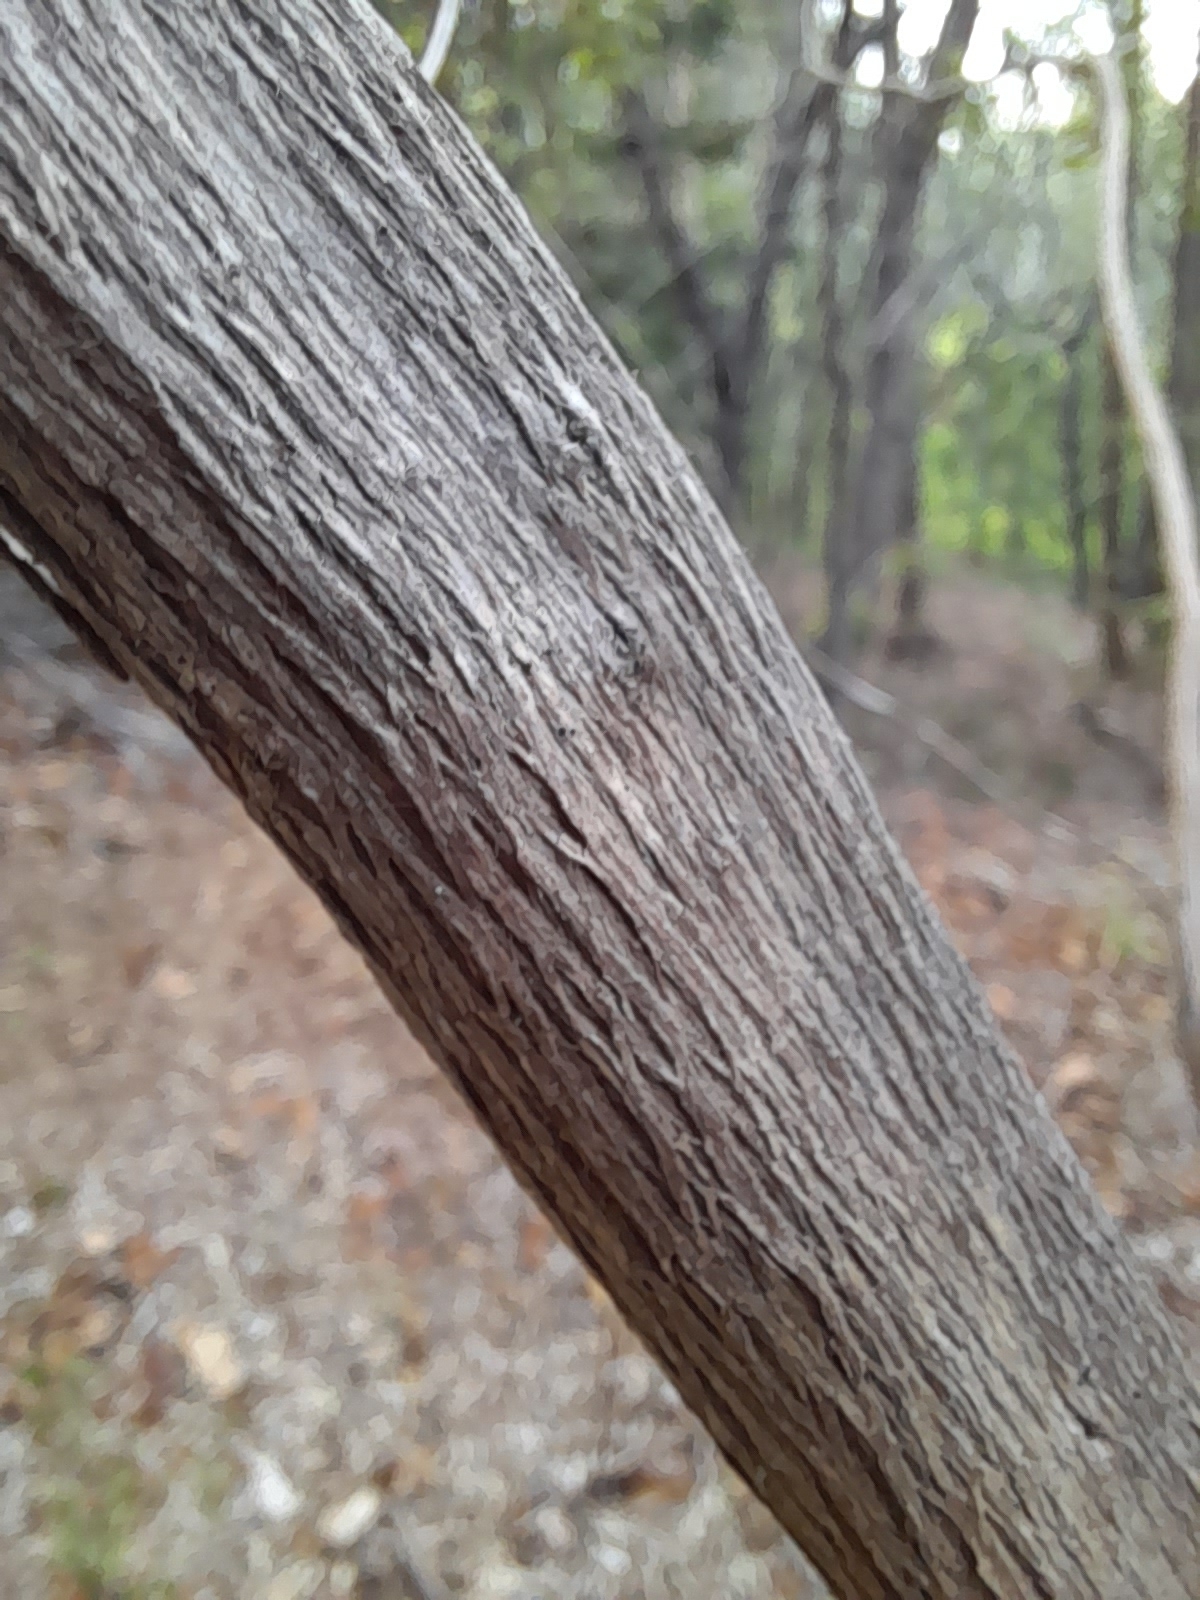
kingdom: Plantae
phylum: Tracheophyta
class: Magnoliopsida
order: Myrtales
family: Myrtaceae
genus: Sannantha
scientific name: Sannantha collina
